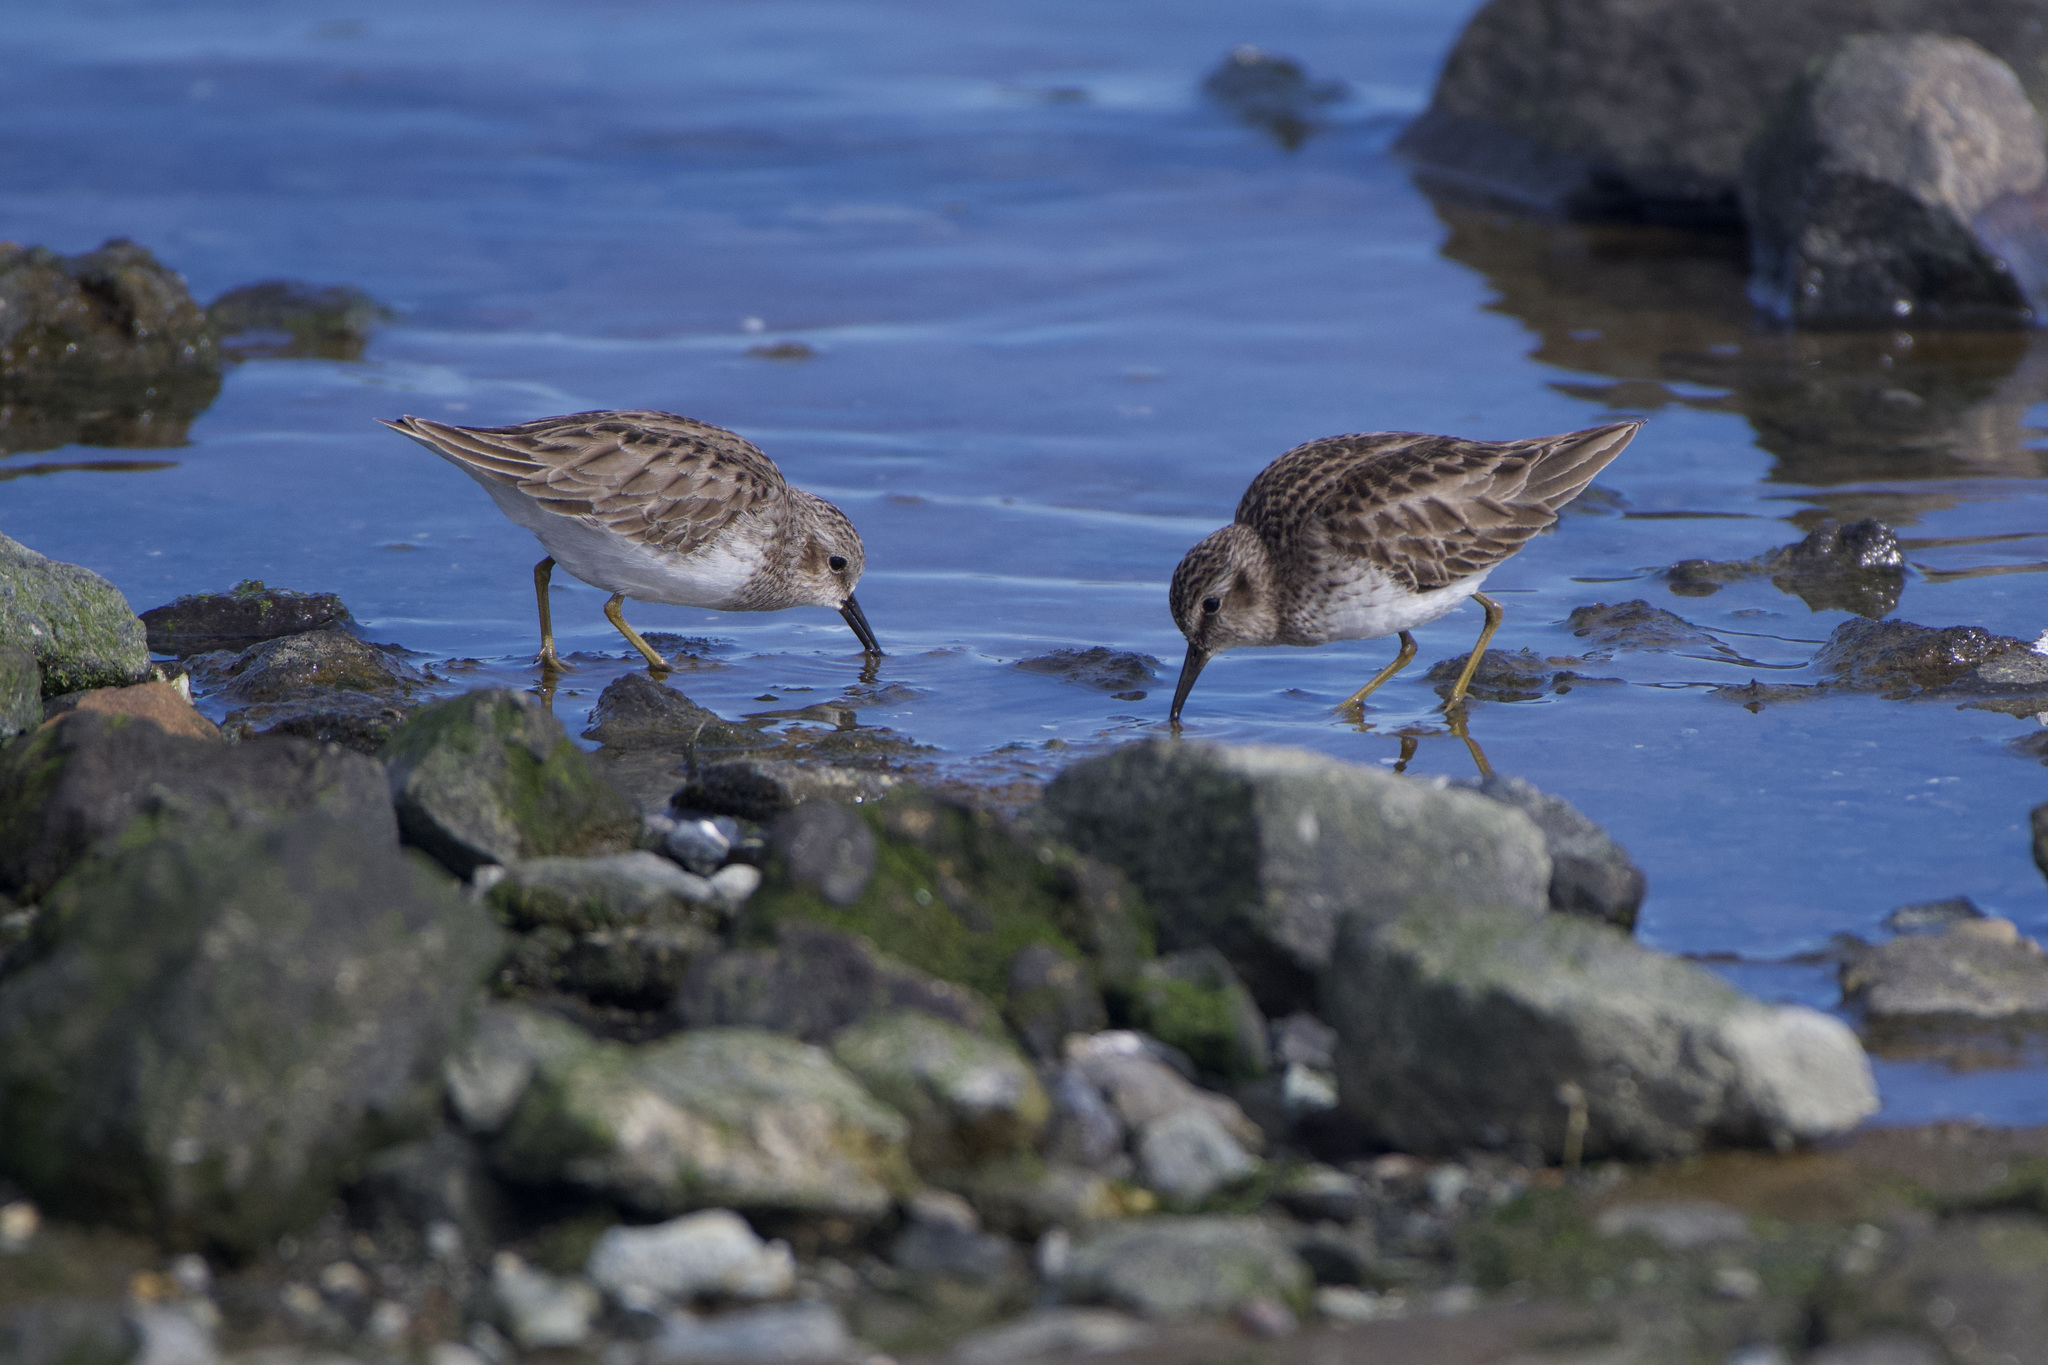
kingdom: Animalia
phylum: Chordata
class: Aves
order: Charadriiformes
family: Scolopacidae
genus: Calidris
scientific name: Calidris minutilla
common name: Least sandpiper
